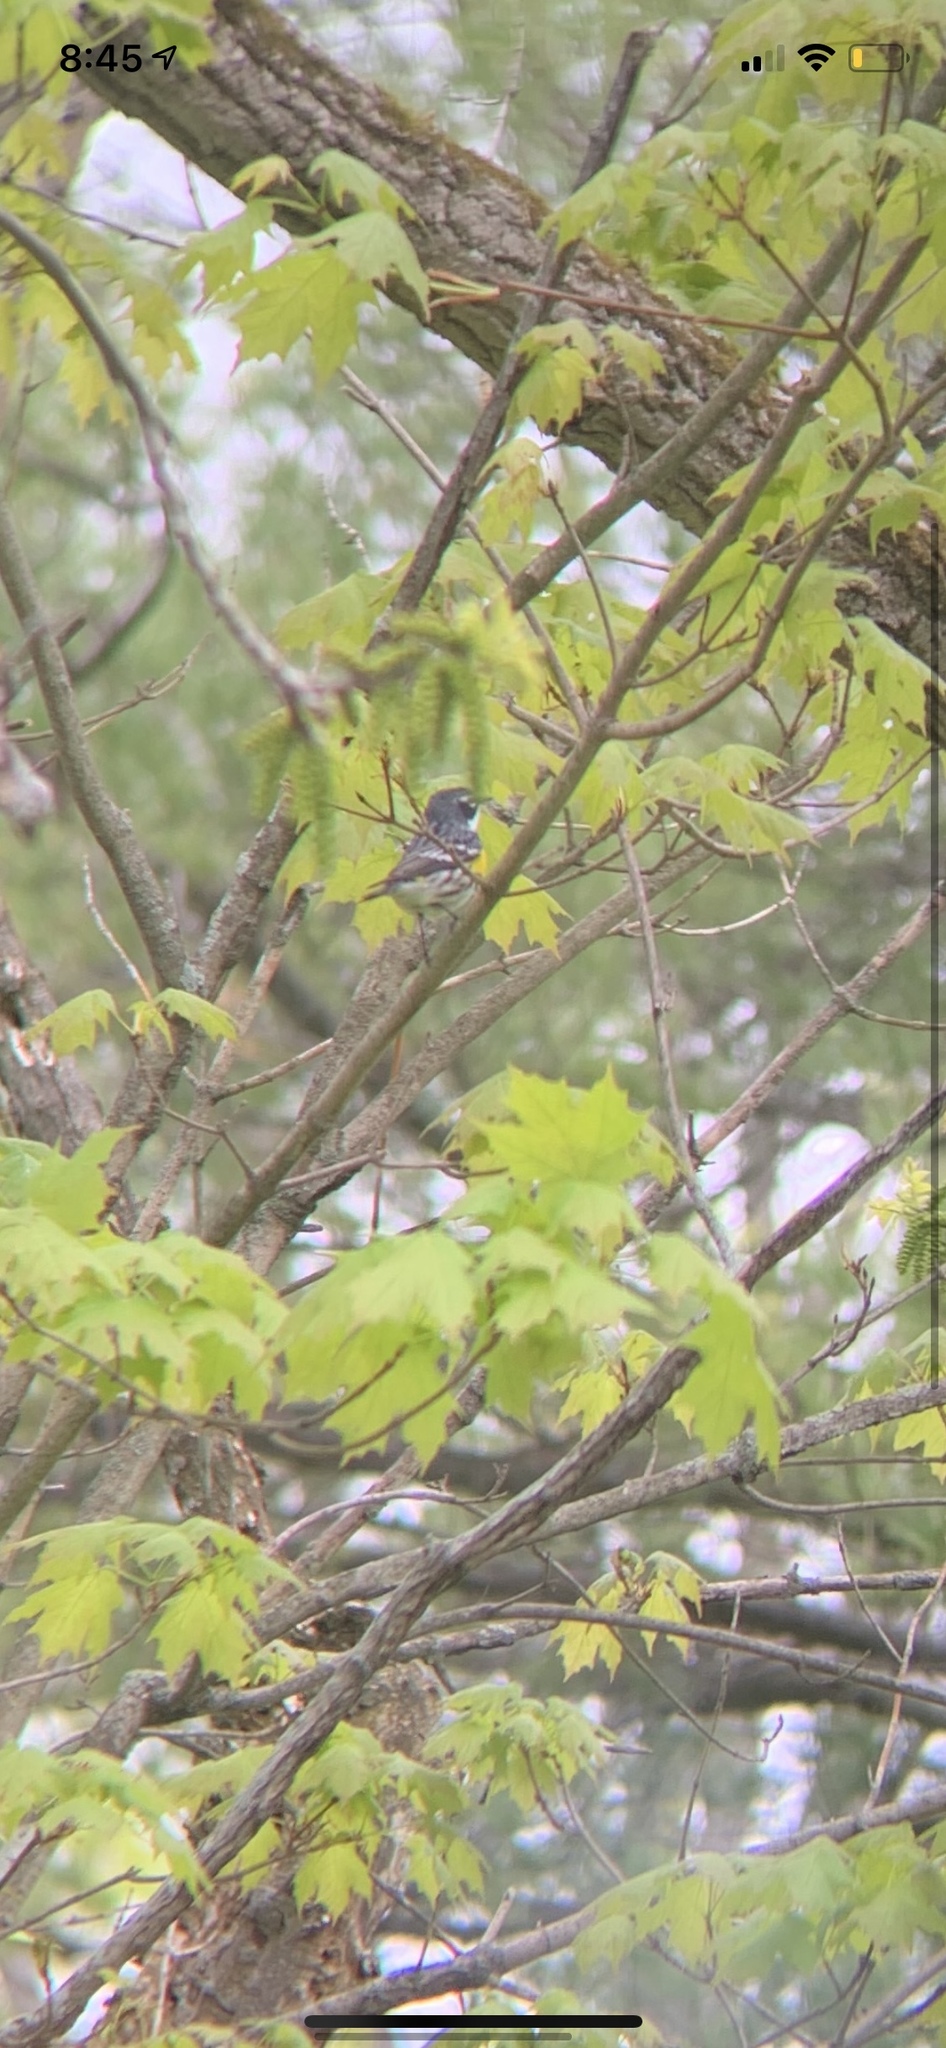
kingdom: Animalia
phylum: Chordata
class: Aves
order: Passeriformes
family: Parulidae
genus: Setophaga
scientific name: Setophaga coronata
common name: Myrtle warbler
